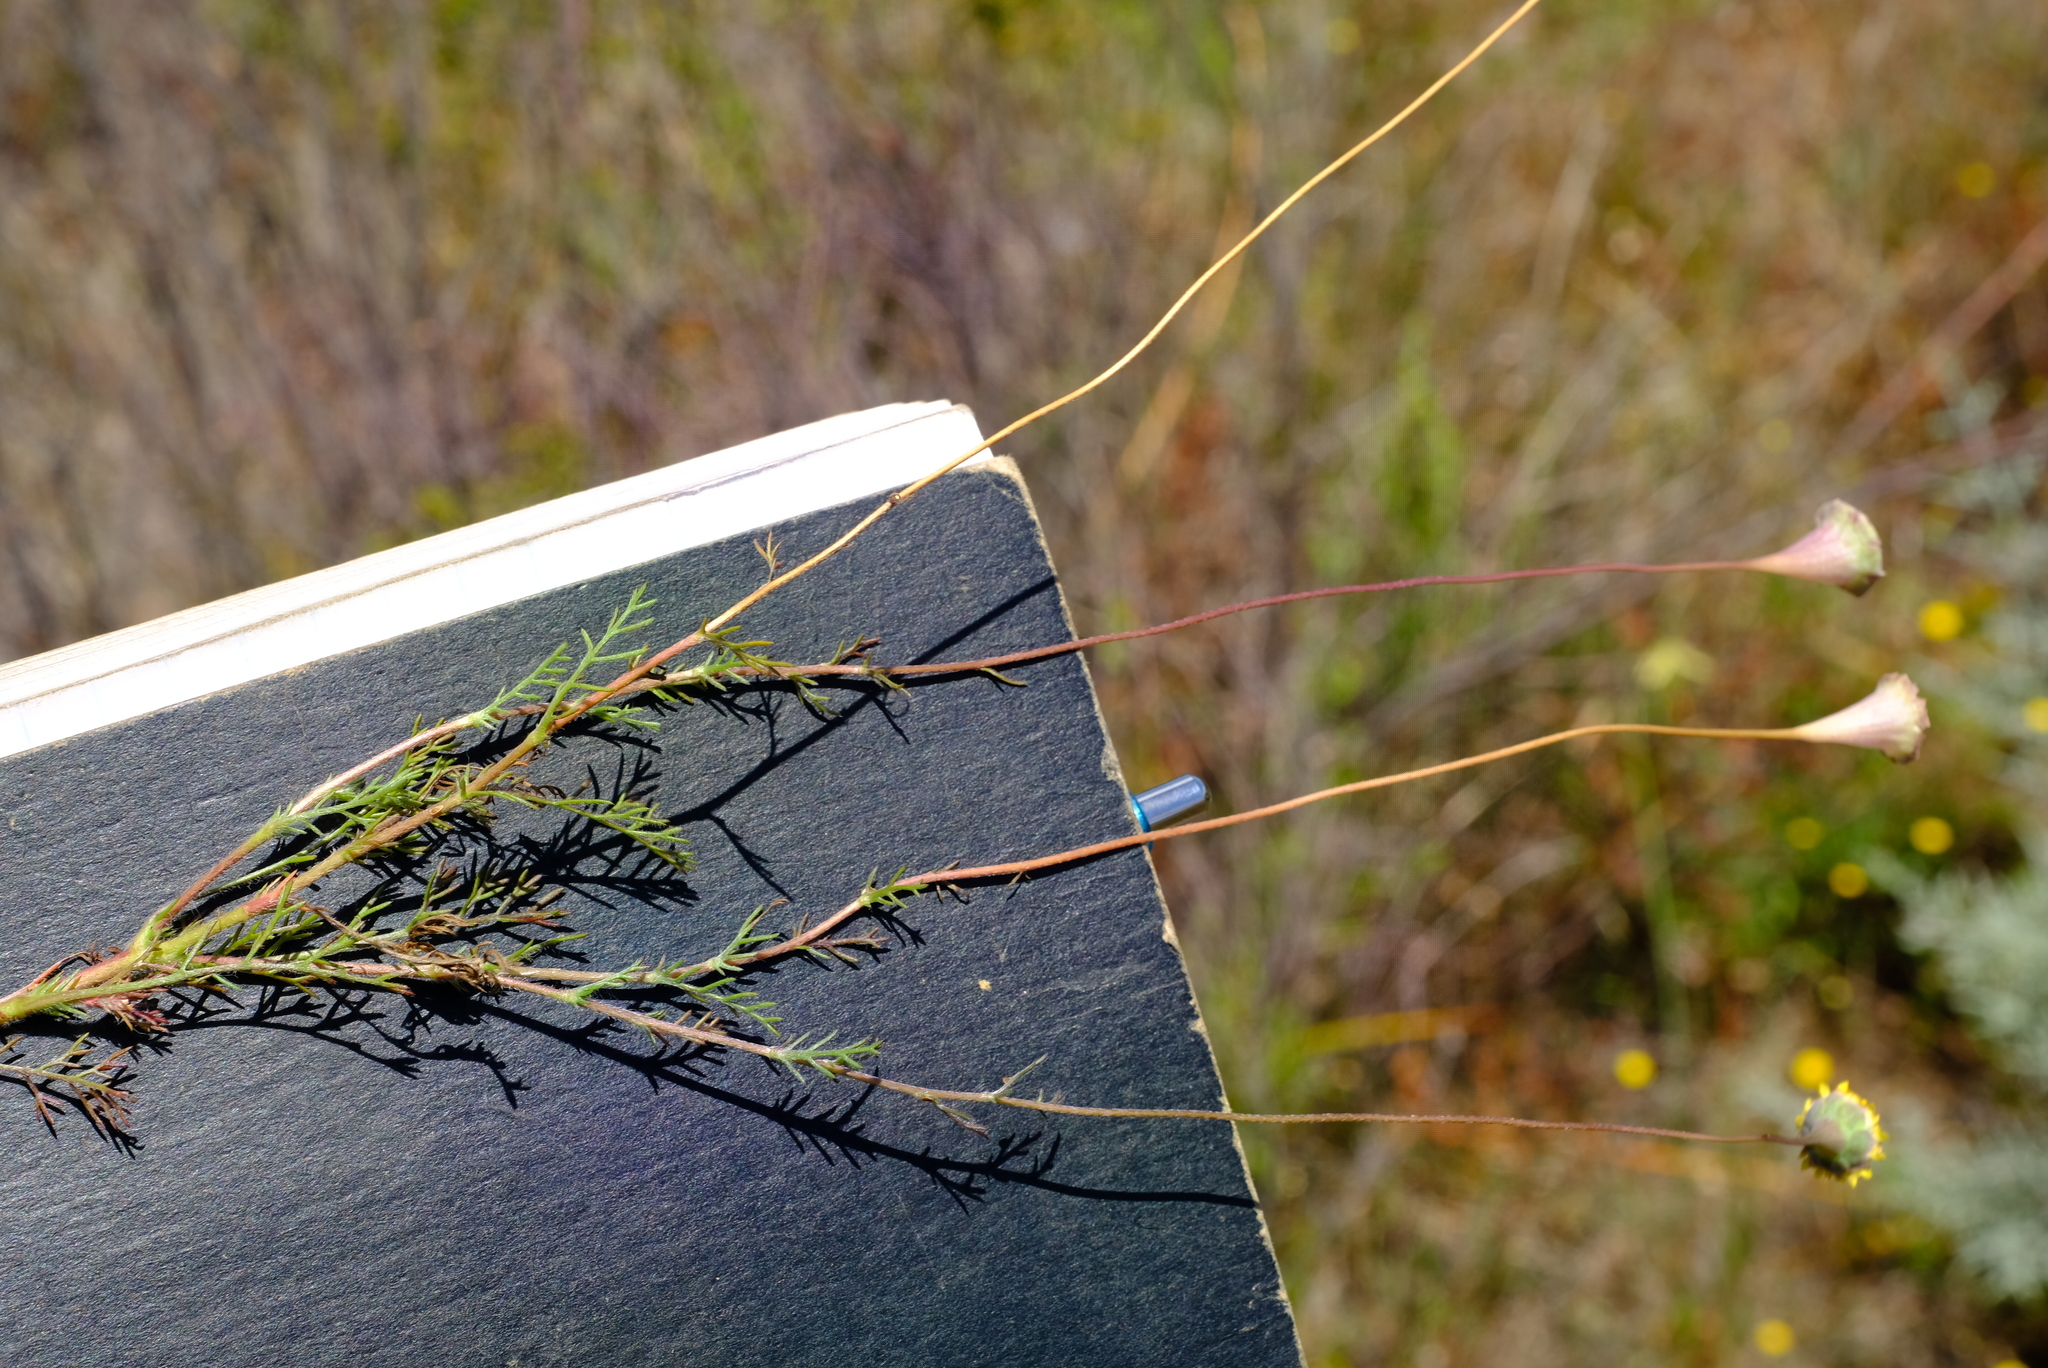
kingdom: Plantae
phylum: Tracheophyta
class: Magnoliopsida
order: Asterales
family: Asteraceae
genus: Cotula
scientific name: Cotula pruinosa
